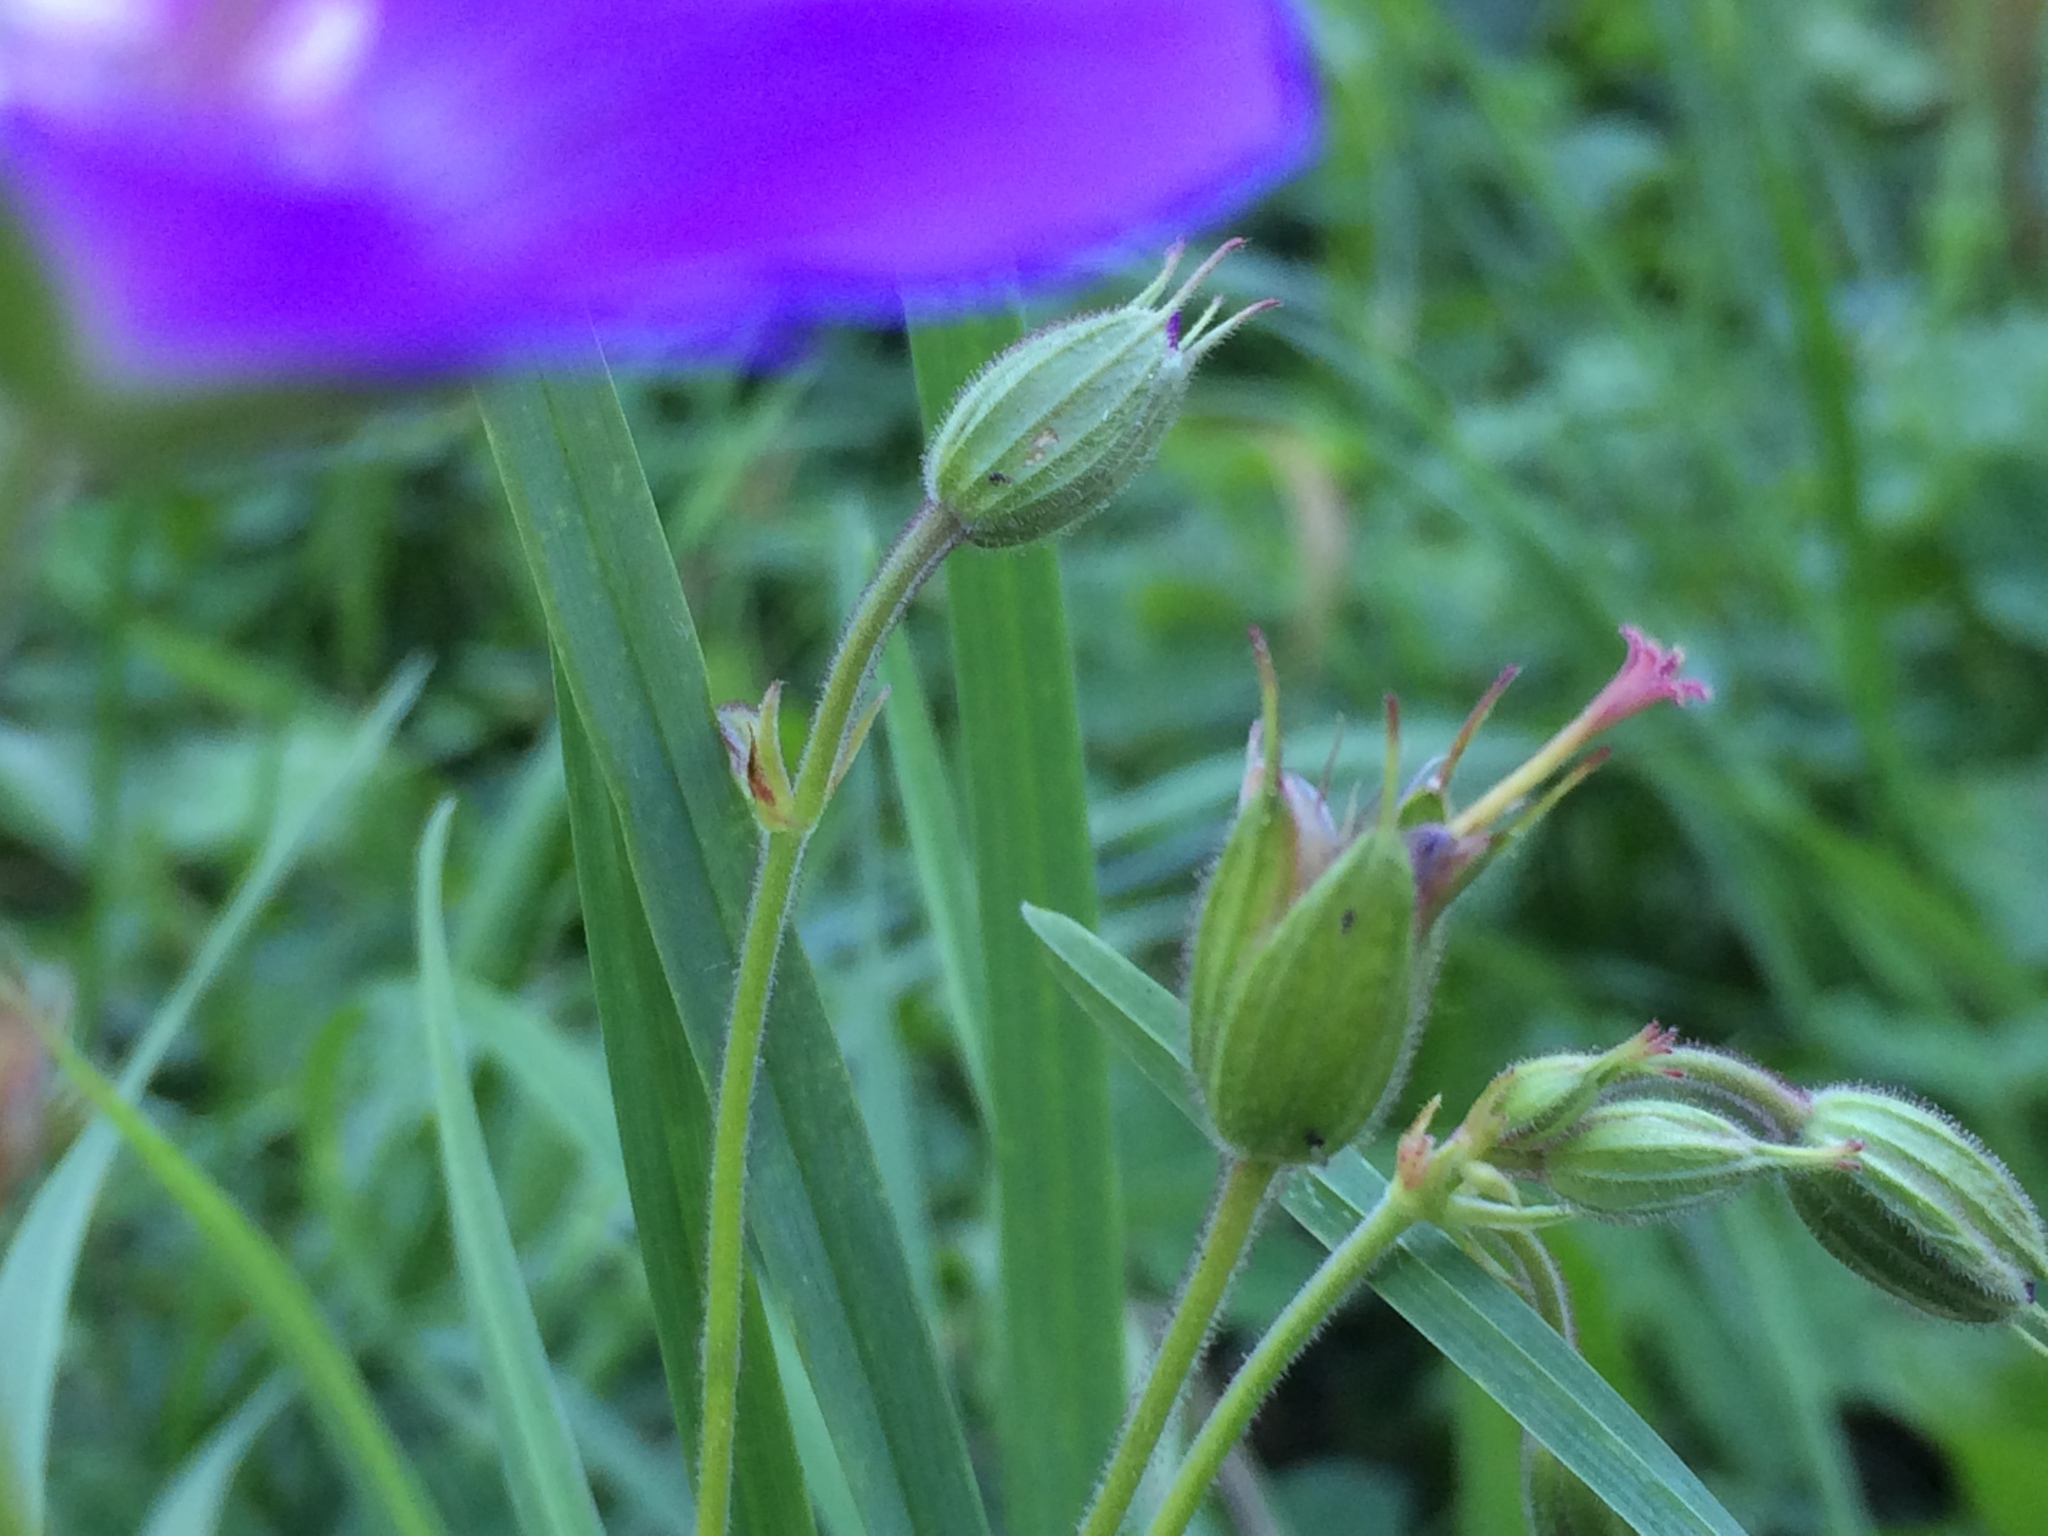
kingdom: Plantae
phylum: Tracheophyta
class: Magnoliopsida
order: Geraniales
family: Geraniaceae
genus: Geranium
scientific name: Geranium sylvaticum
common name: Wood crane's-bill
